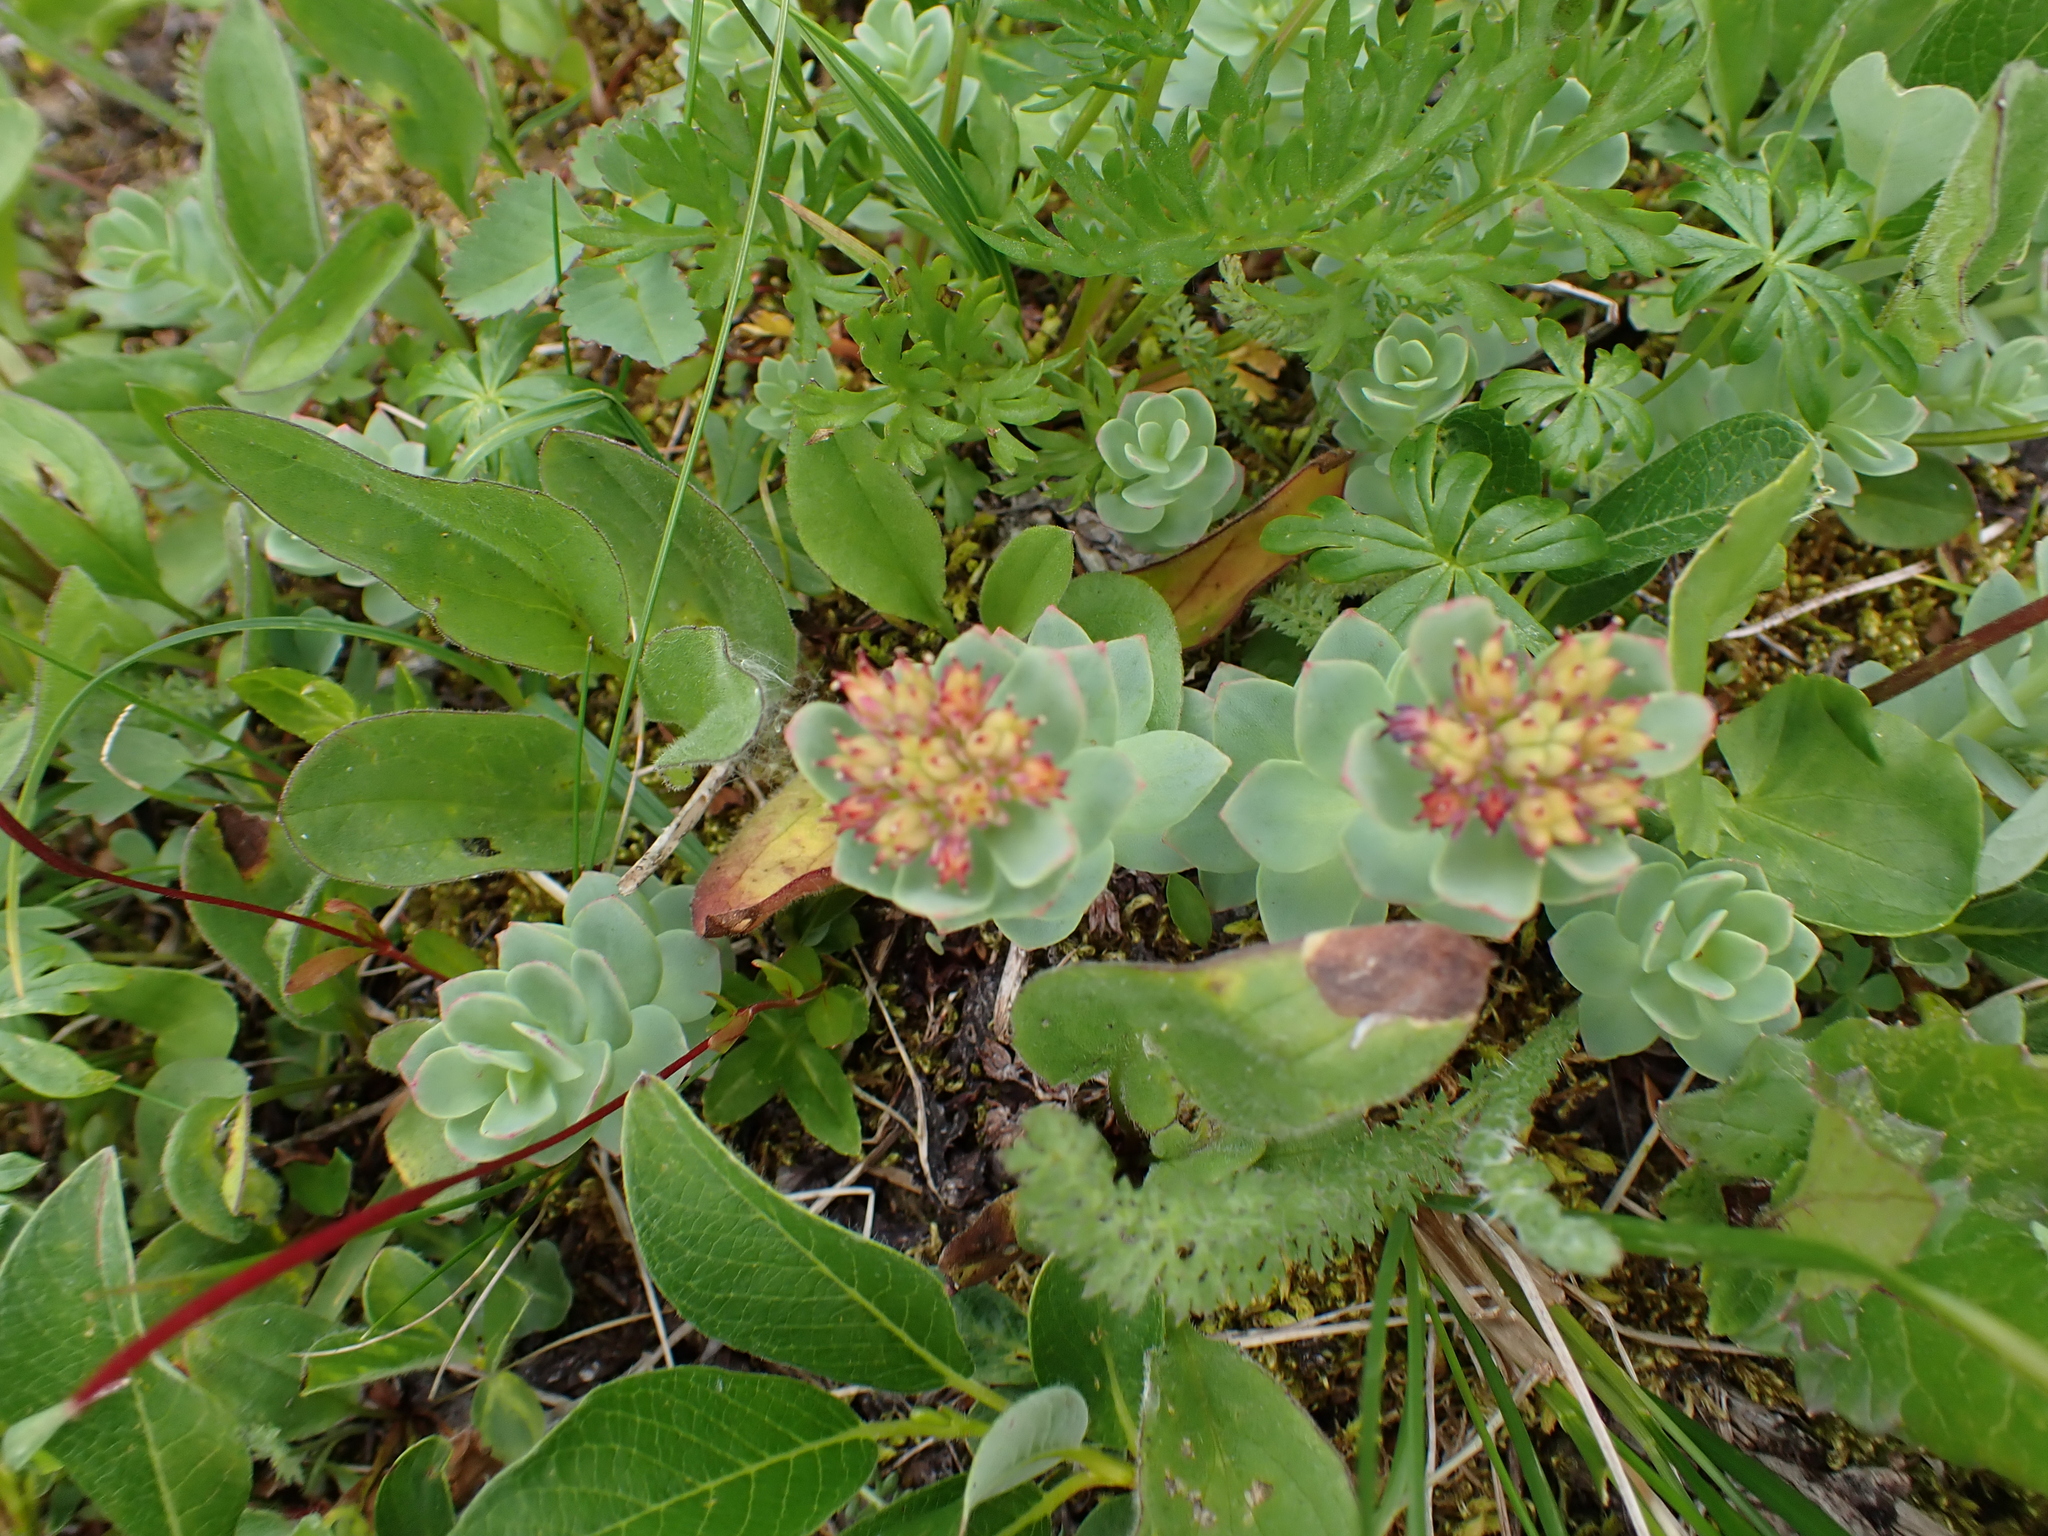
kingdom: Plantae
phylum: Tracheophyta
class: Magnoliopsida
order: Saxifragales
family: Crassulaceae
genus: Rhodiola
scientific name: Rhodiola integrifolia
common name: Western roseroot
